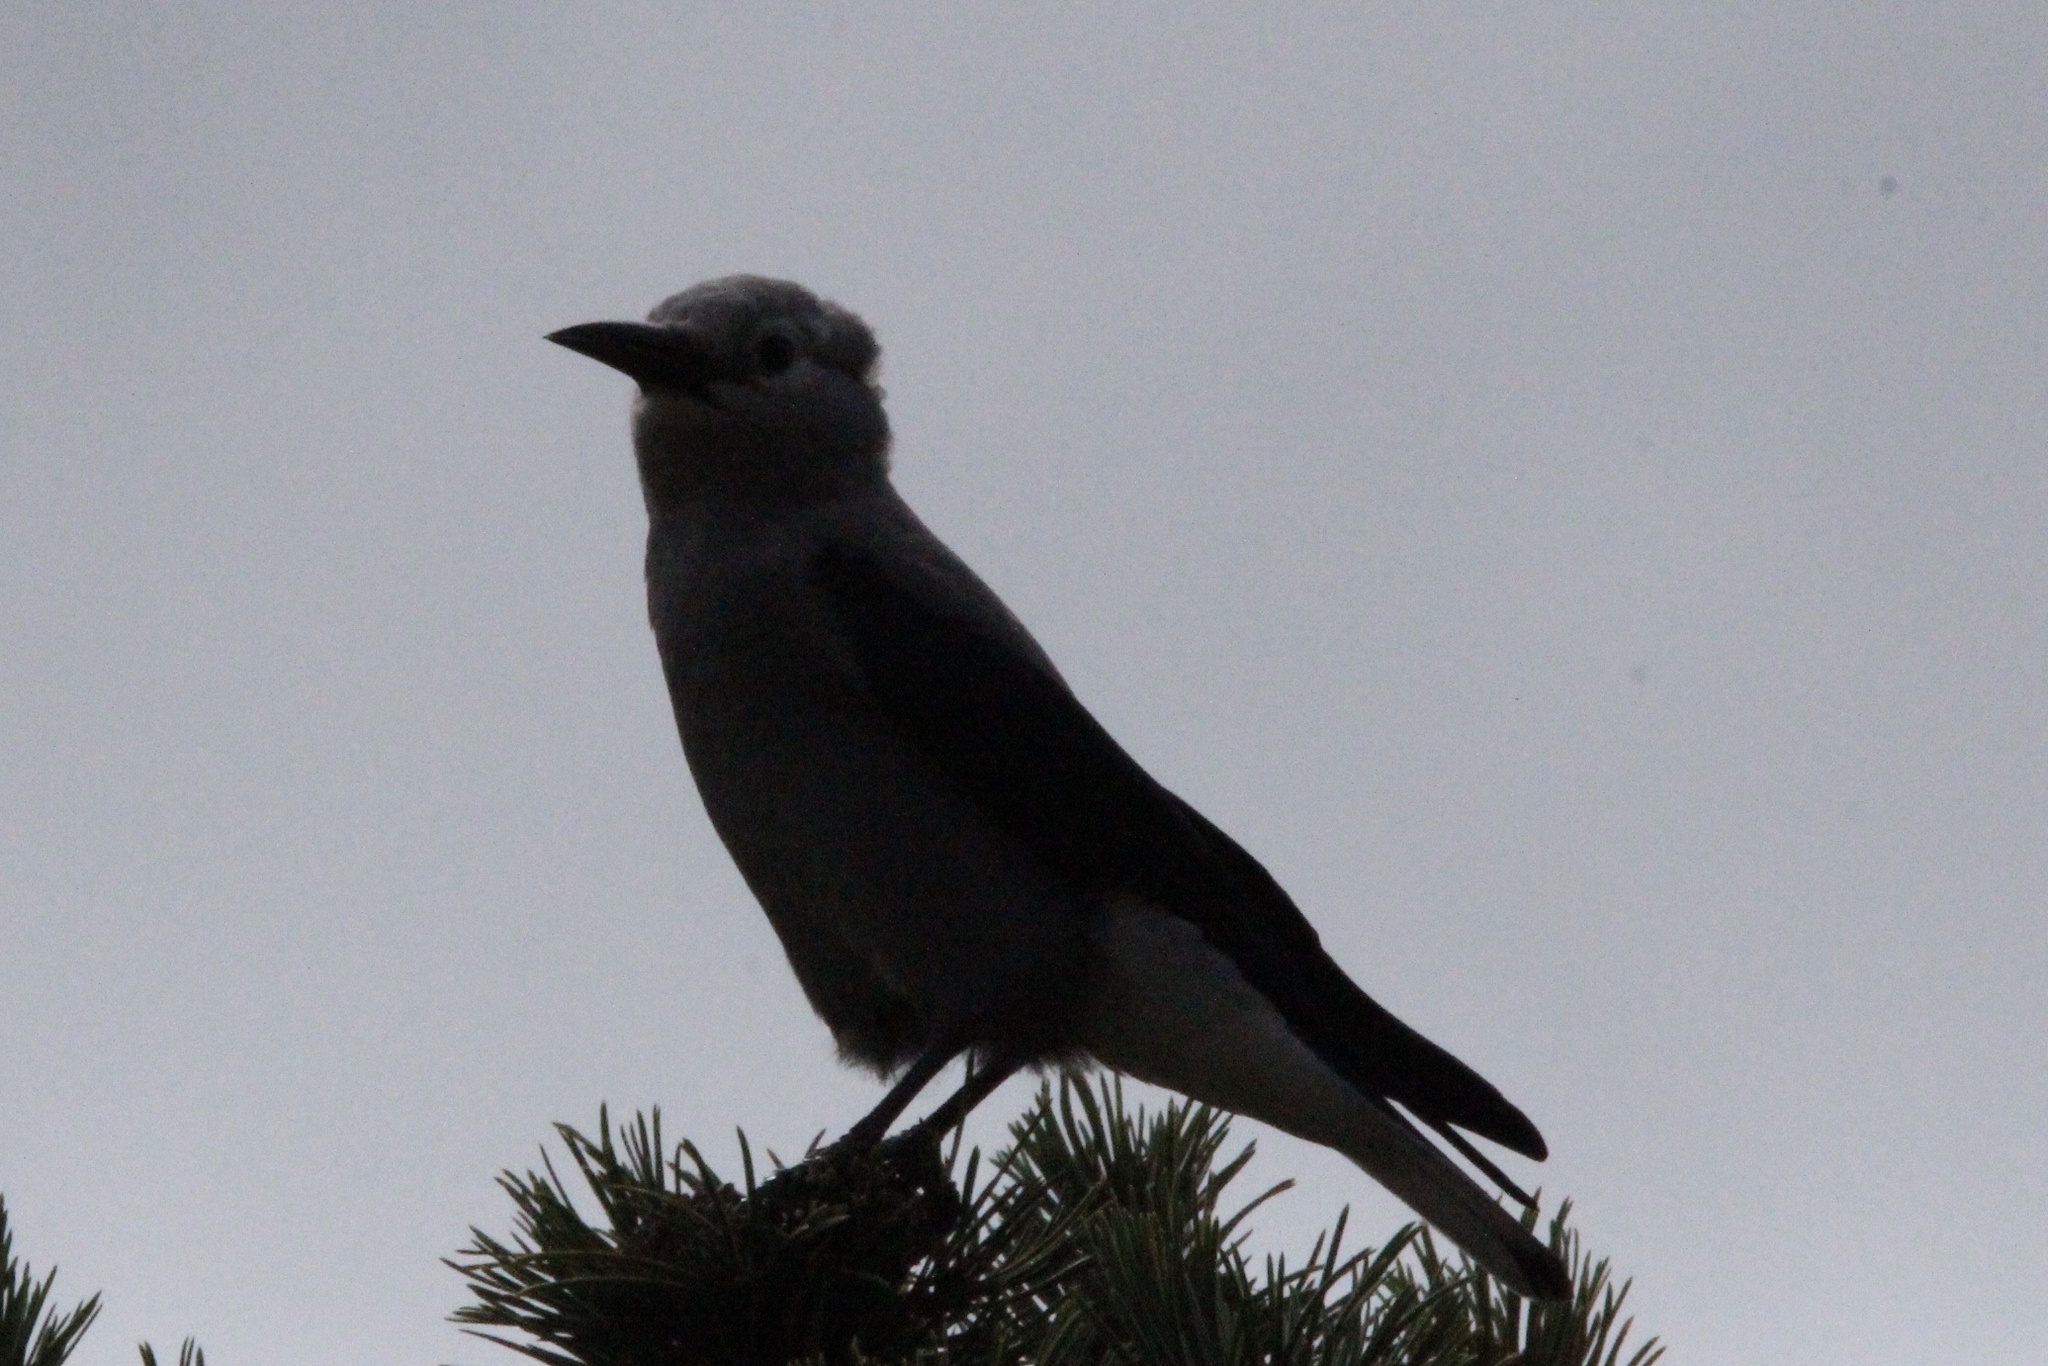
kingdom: Animalia
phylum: Chordata
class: Aves
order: Passeriformes
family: Corvidae
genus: Nucifraga
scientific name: Nucifraga columbiana
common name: Clark's nutcracker
